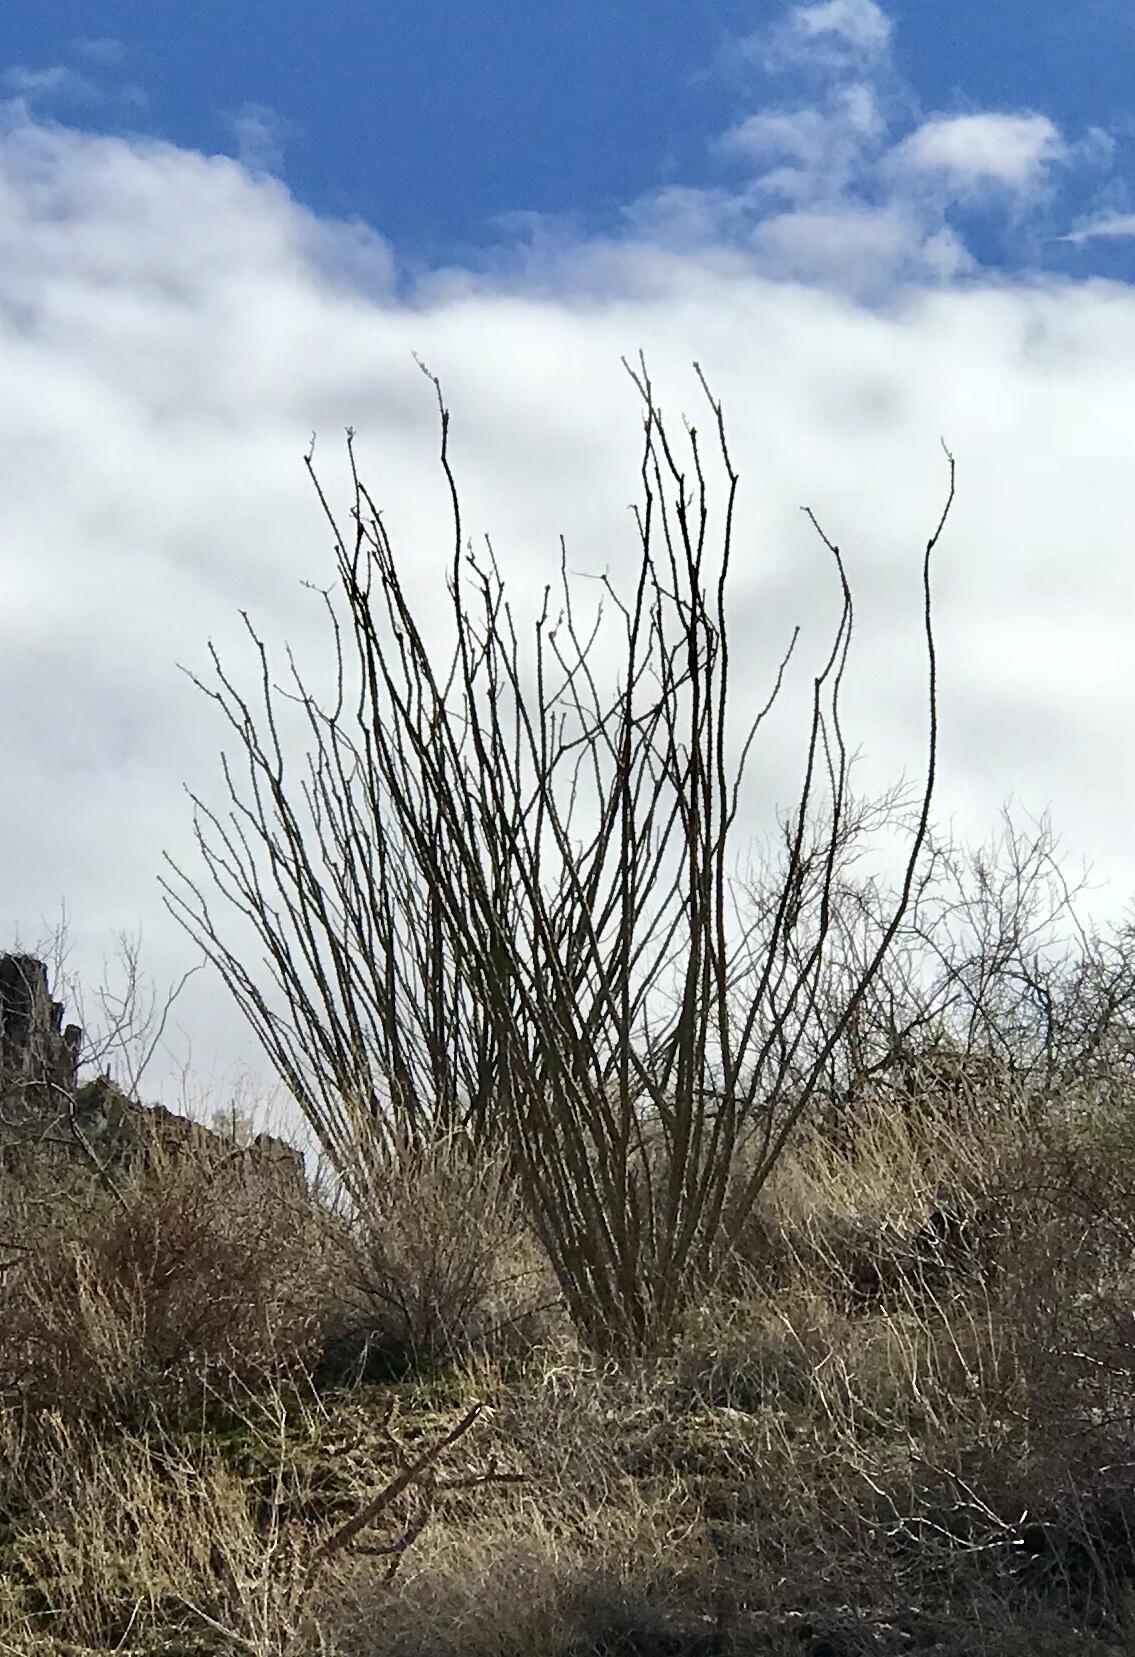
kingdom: Plantae
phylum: Tracheophyta
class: Magnoliopsida
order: Ericales
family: Fouquieriaceae
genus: Fouquieria
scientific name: Fouquieria splendens
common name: Vine-cactus
